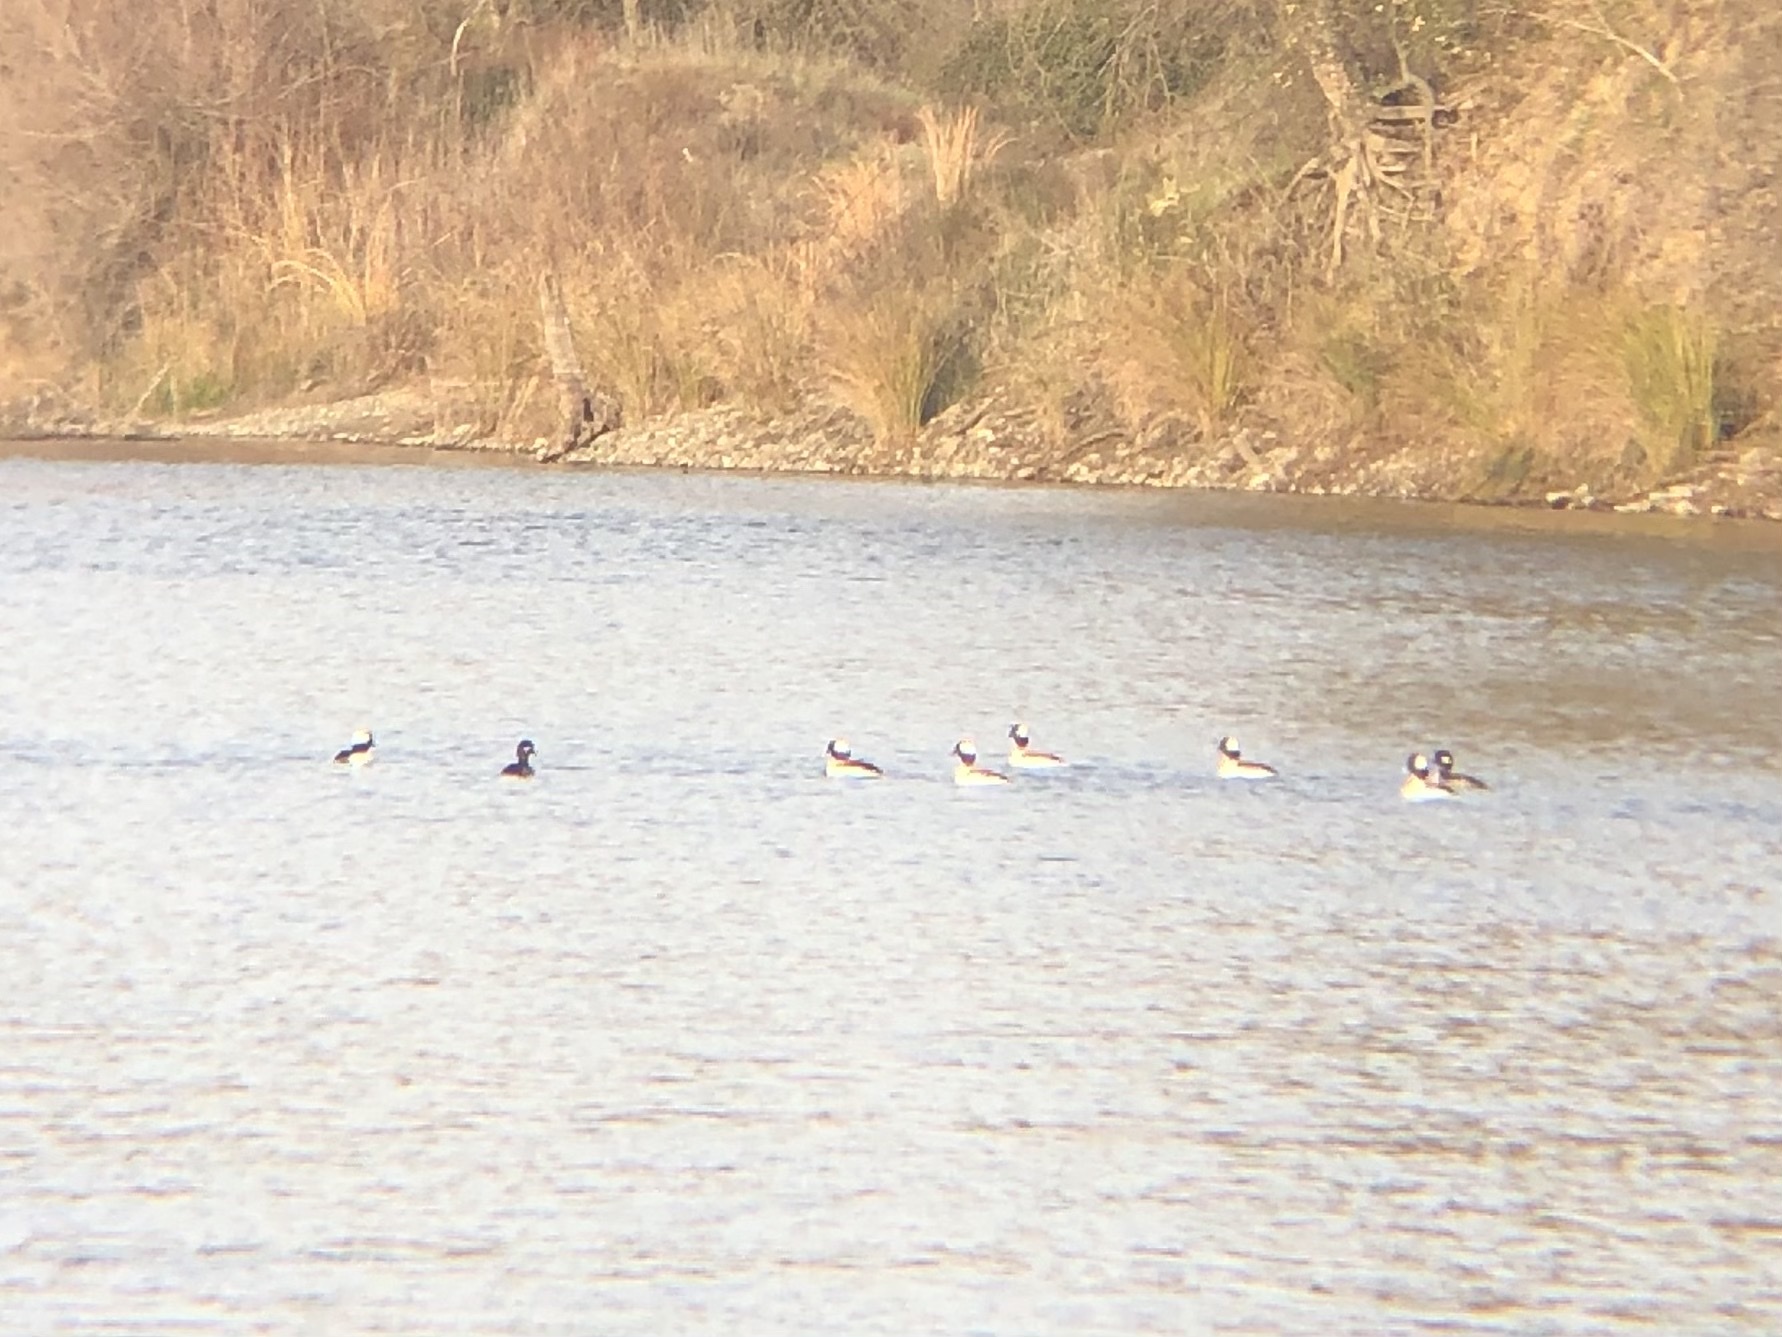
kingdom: Animalia
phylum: Chordata
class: Aves
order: Anseriformes
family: Anatidae
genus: Bucephala
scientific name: Bucephala albeola
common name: Bufflehead
